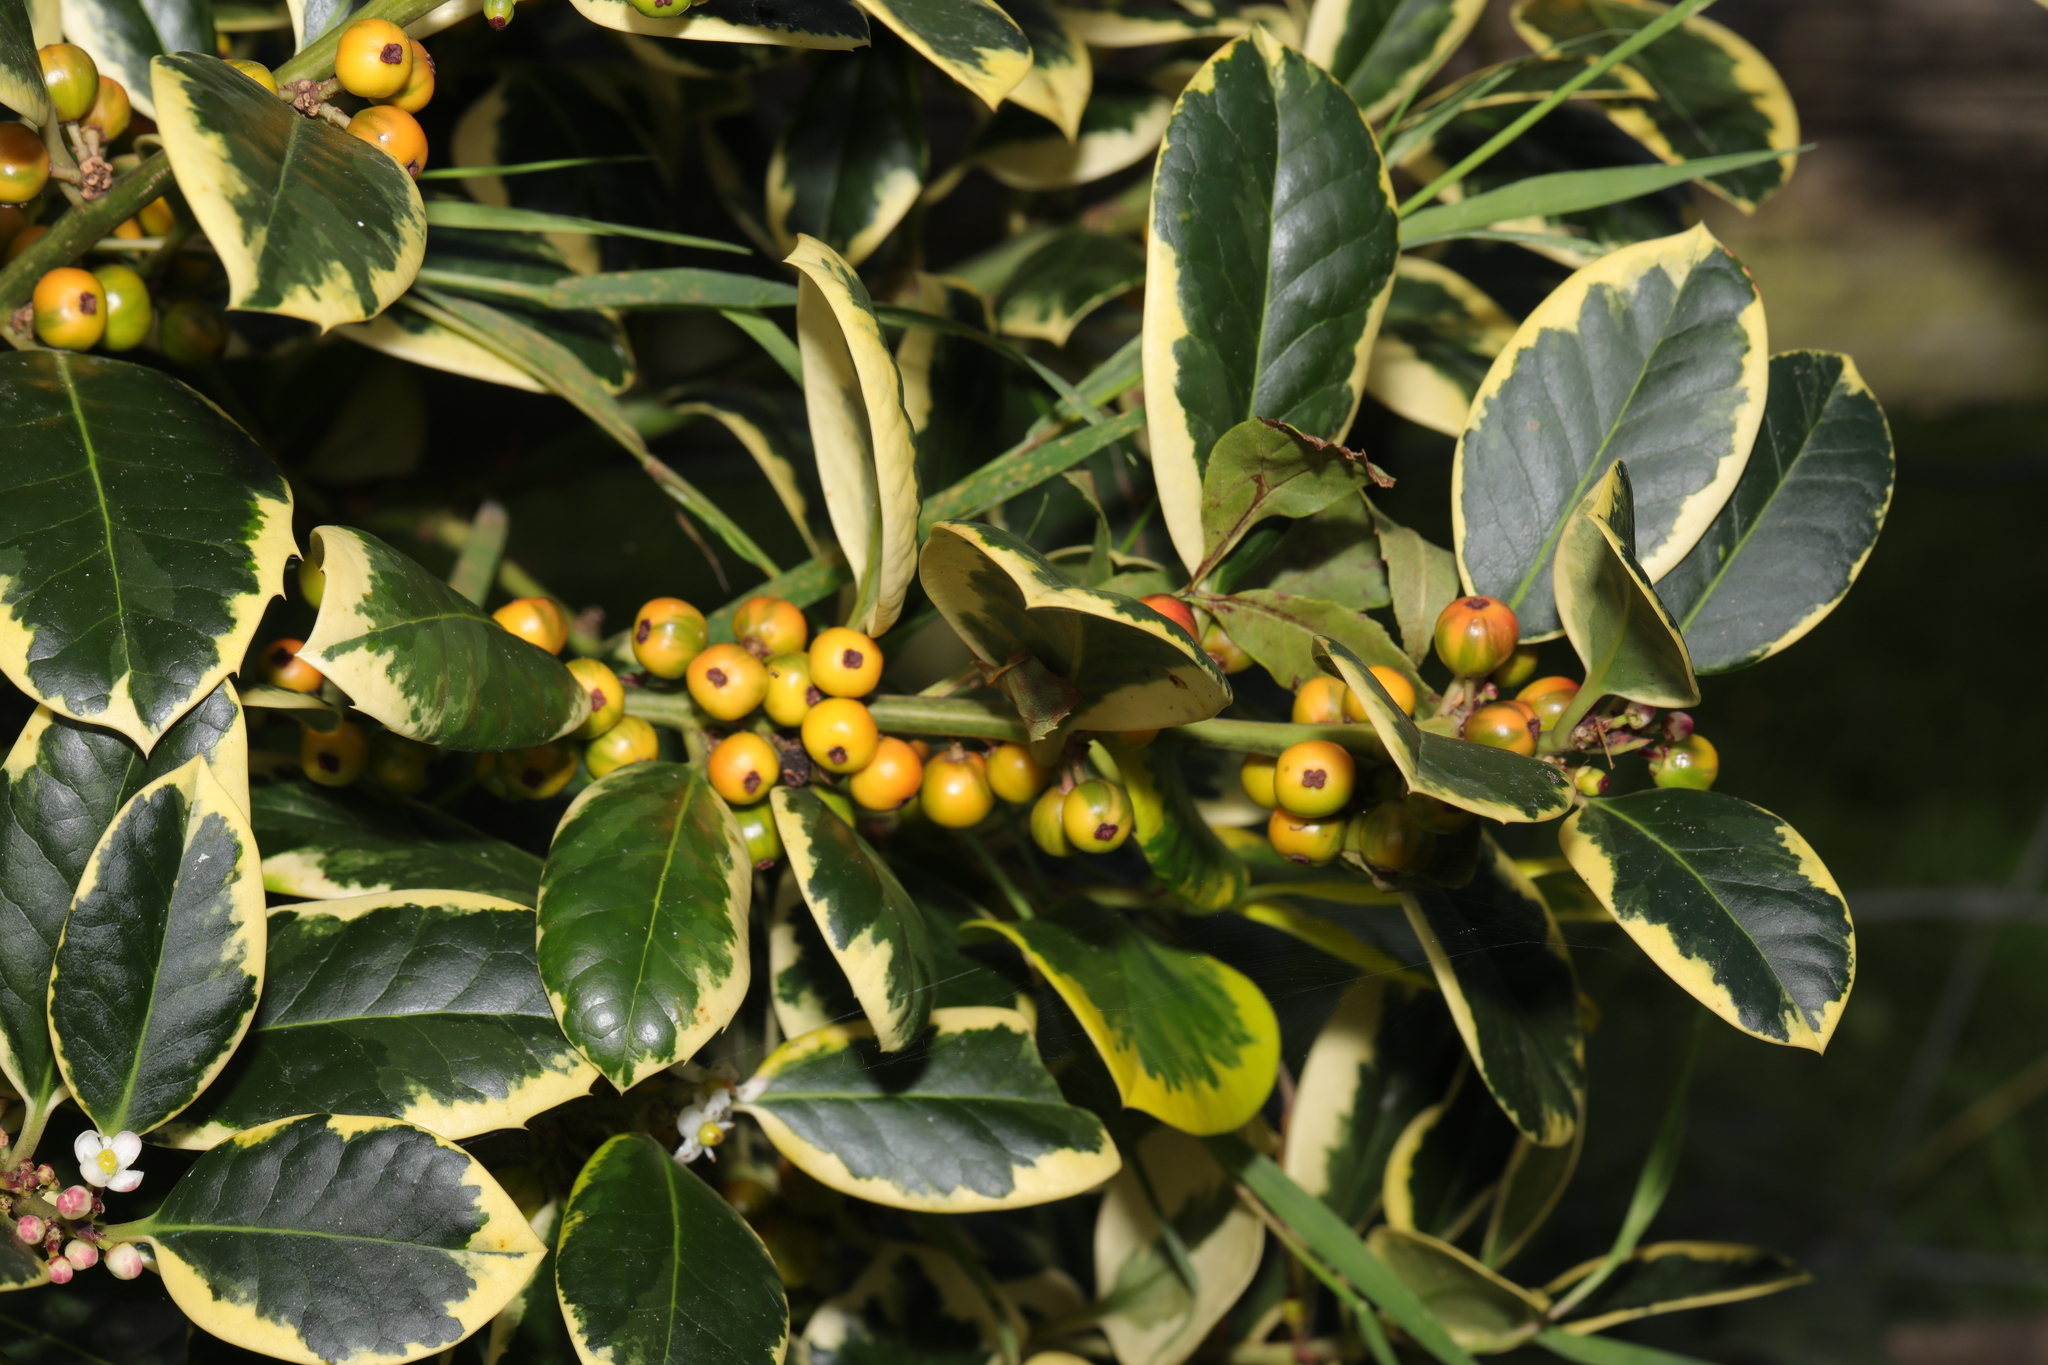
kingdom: Plantae
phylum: Tracheophyta
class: Magnoliopsida
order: Aquifoliales
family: Aquifoliaceae
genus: Ilex
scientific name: Ilex aquifolium
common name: English holly
